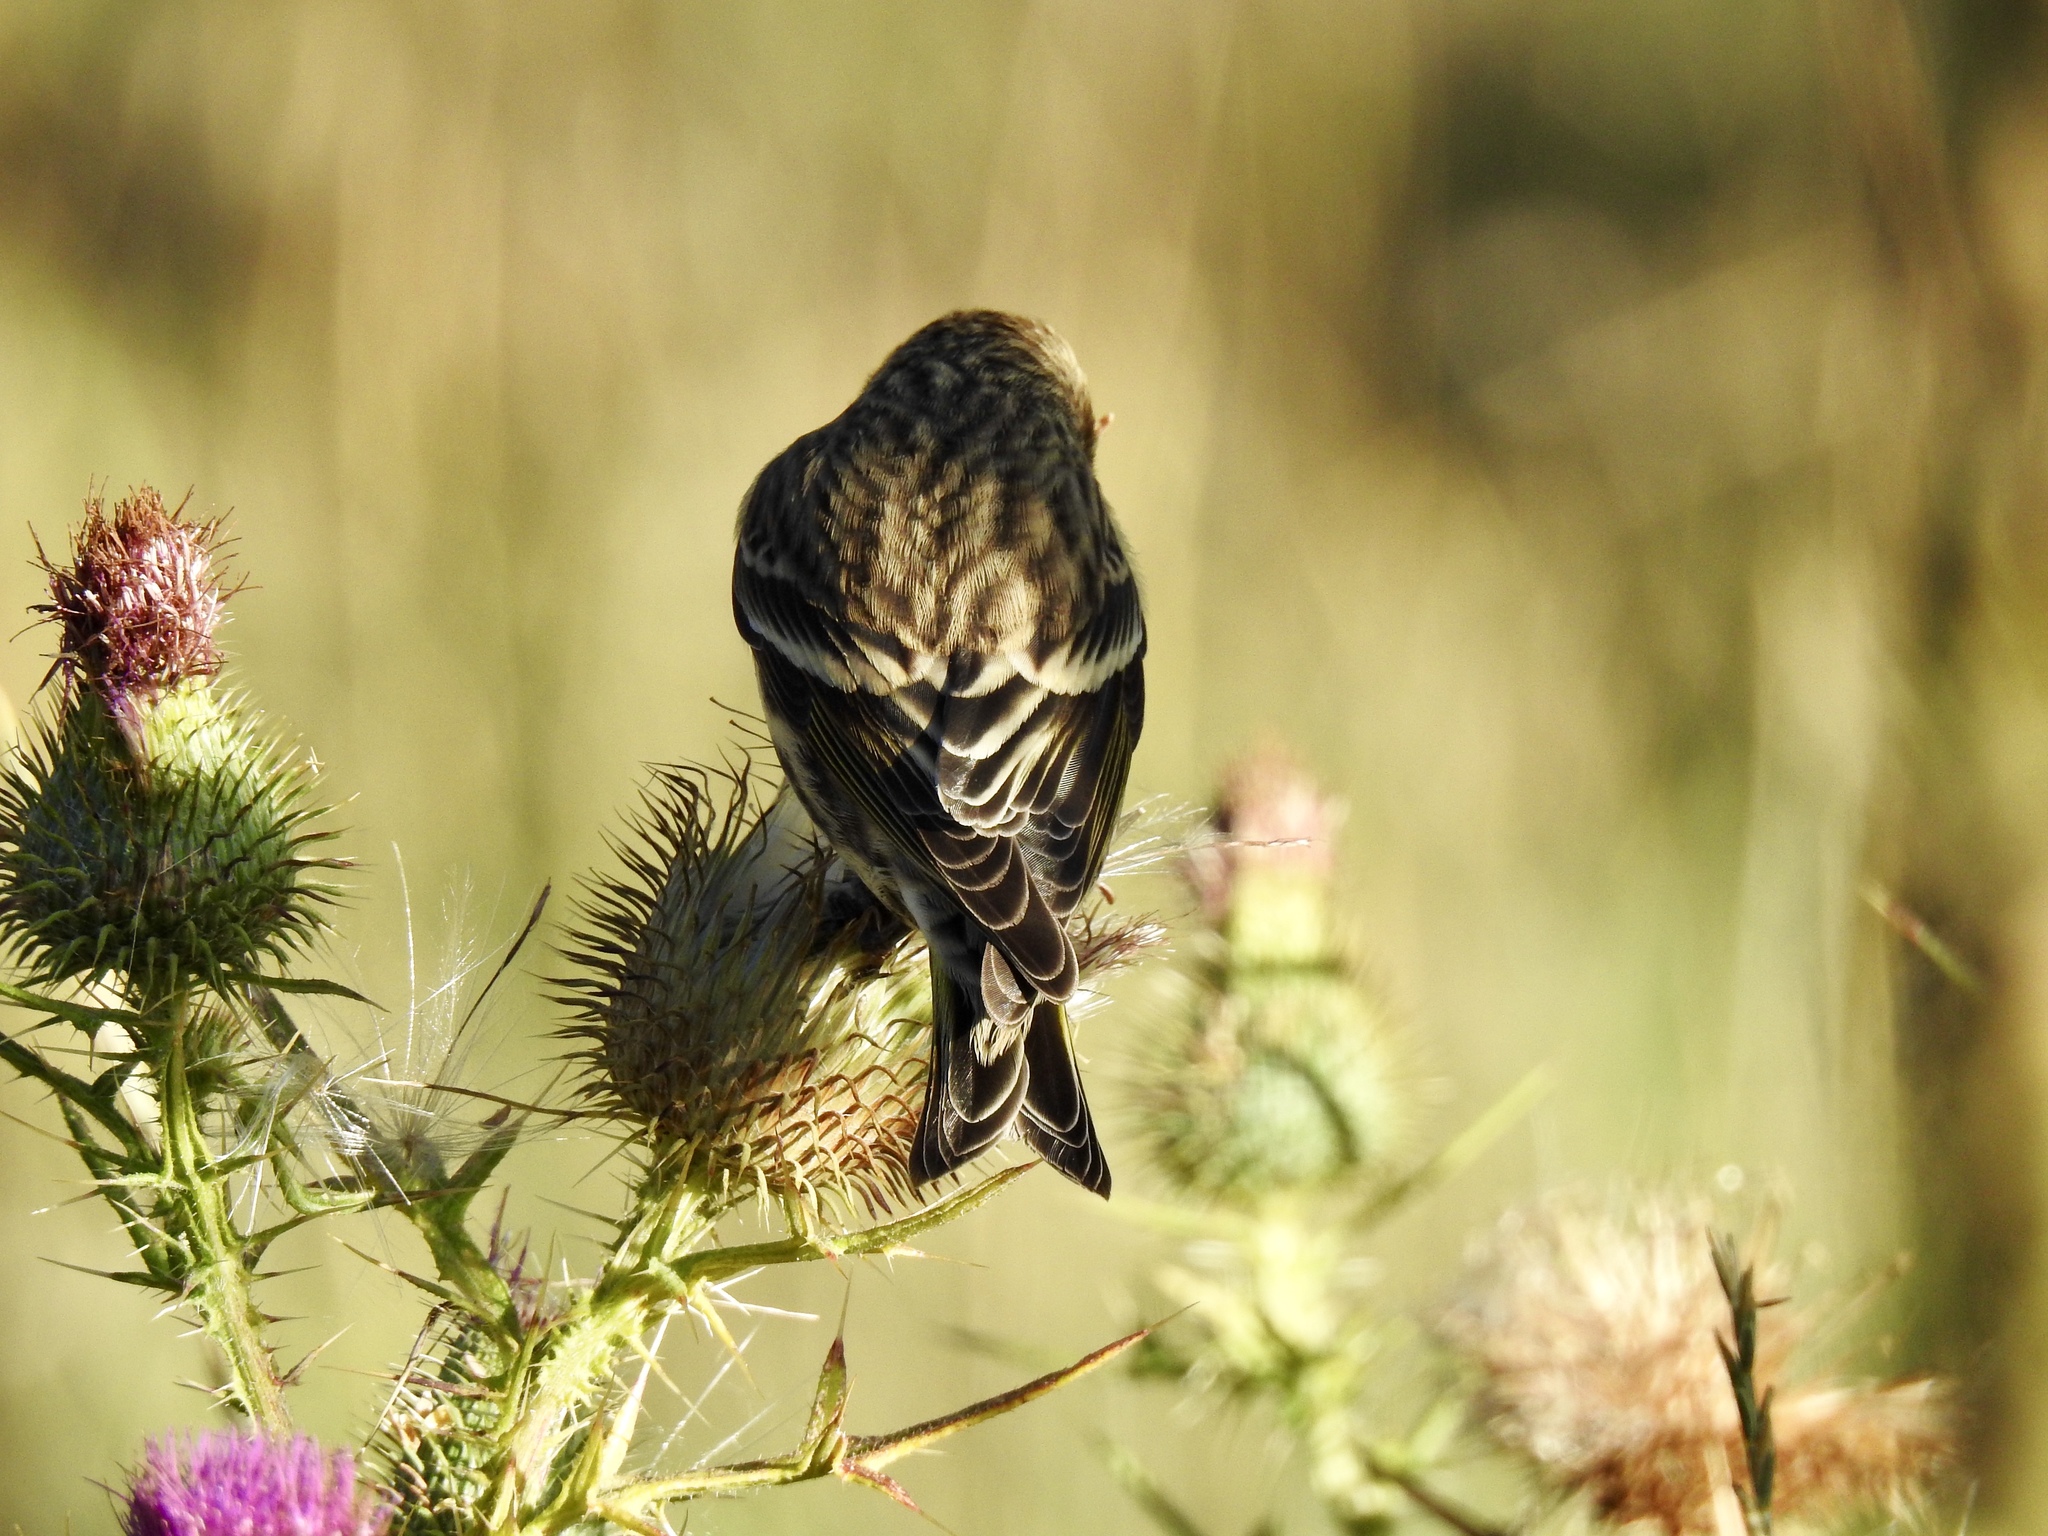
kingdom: Animalia
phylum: Chordata
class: Aves
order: Passeriformes
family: Fringillidae
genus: Spinus
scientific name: Spinus pinus
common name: Pine siskin
